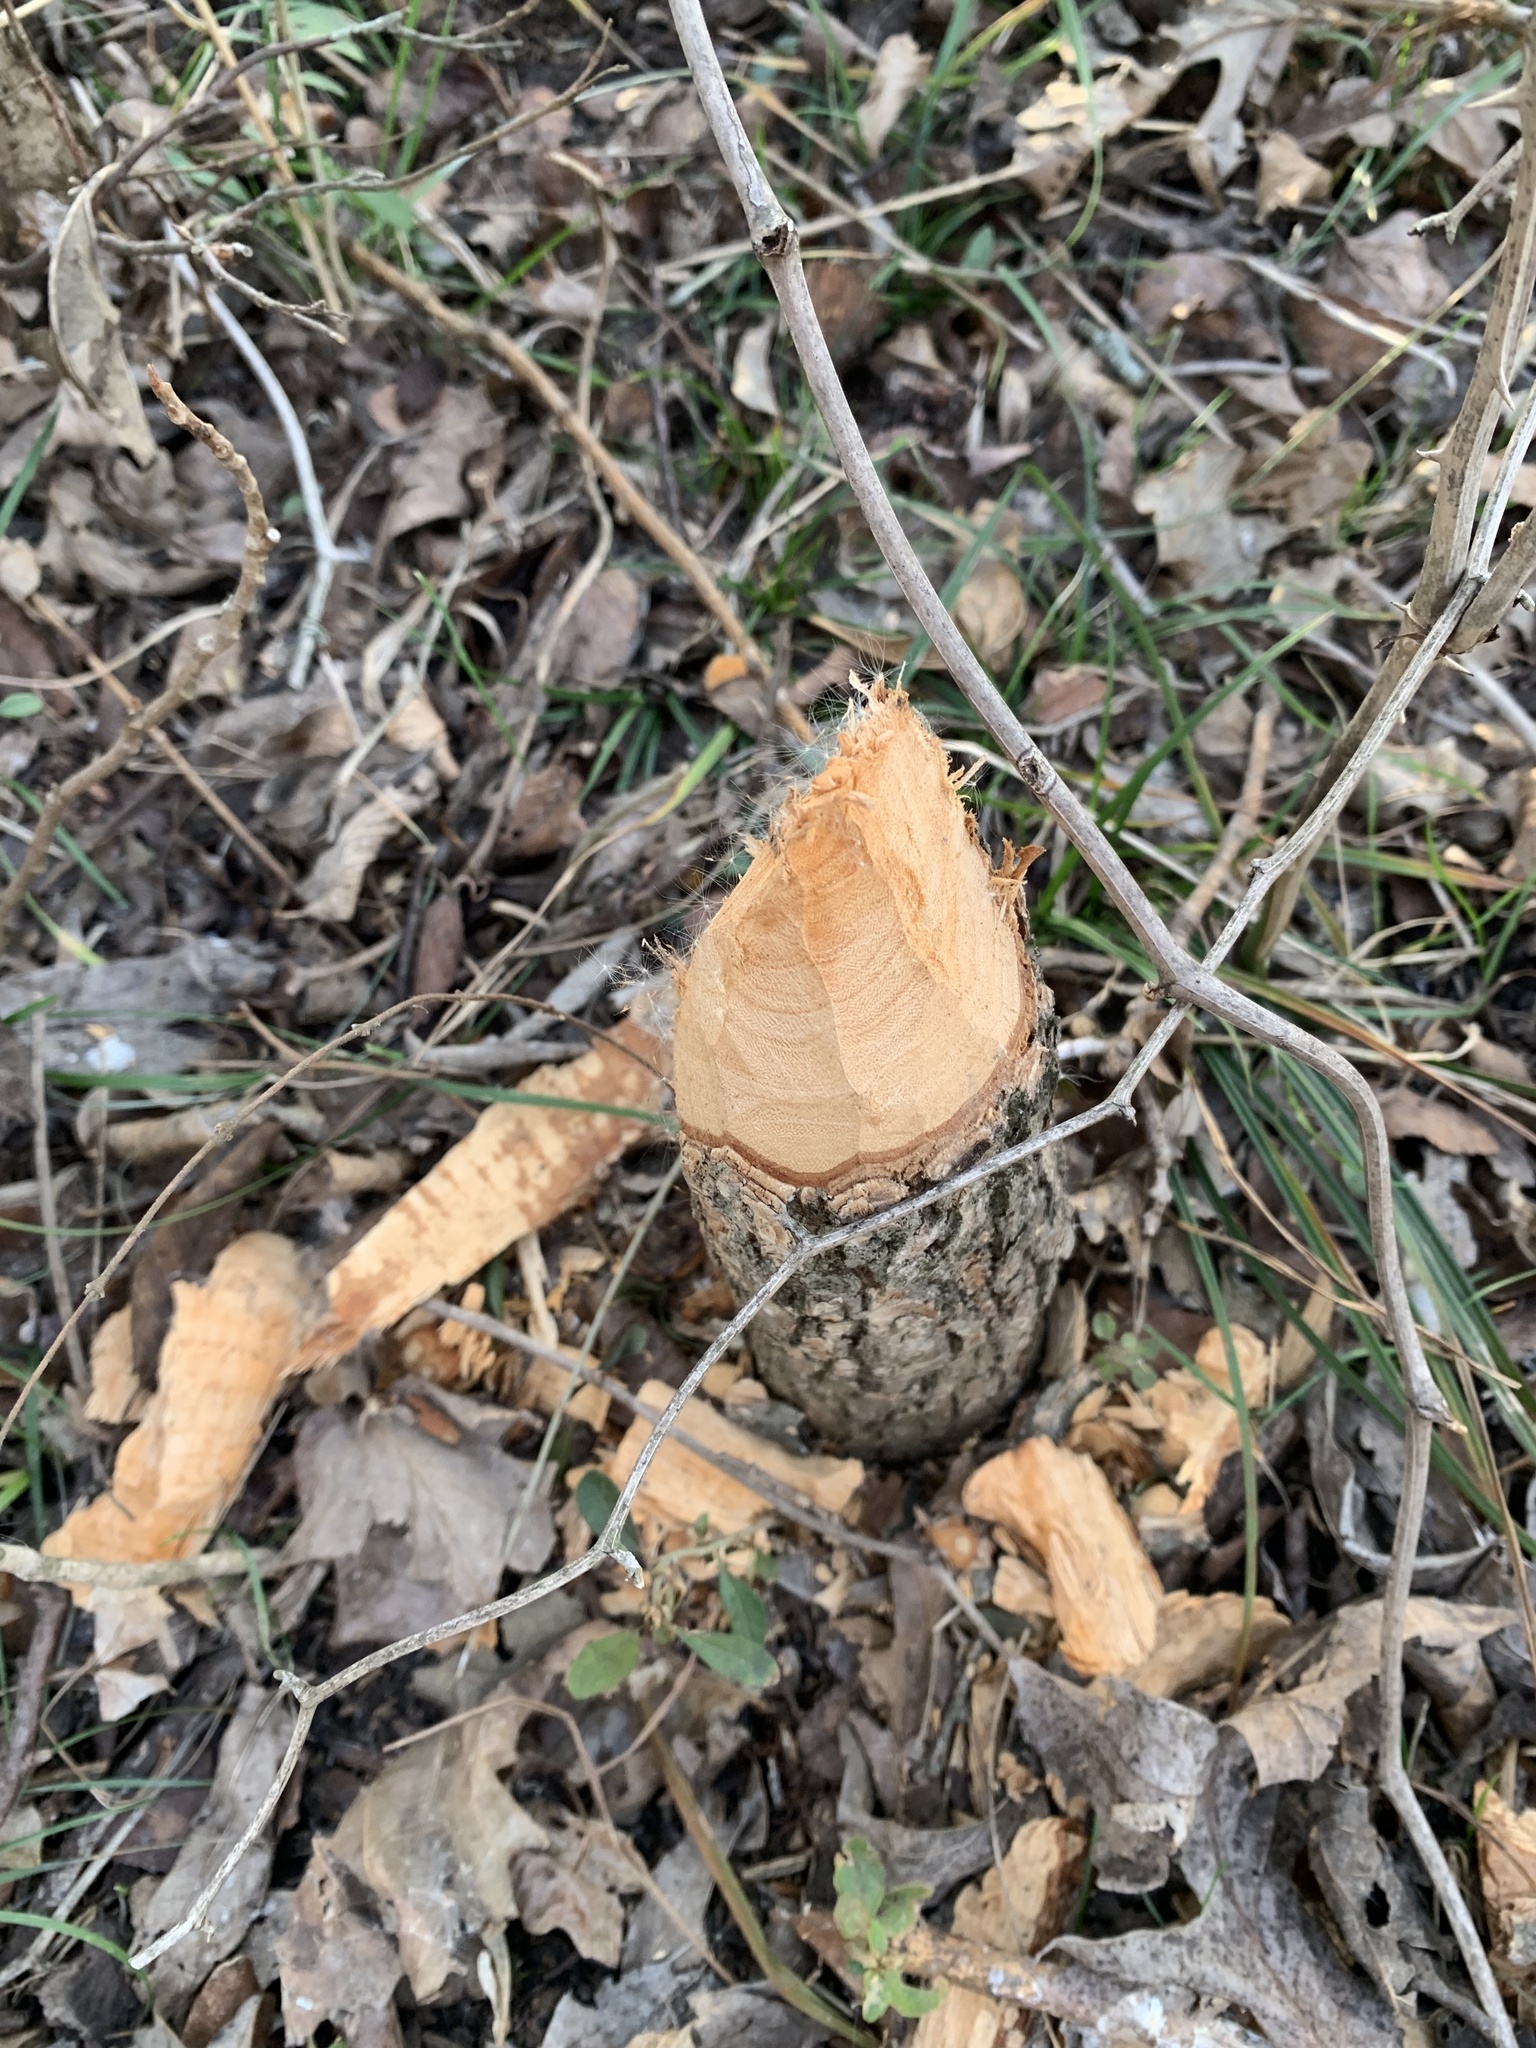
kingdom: Animalia
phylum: Chordata
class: Mammalia
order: Rodentia
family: Castoridae
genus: Castor
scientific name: Castor canadensis
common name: American beaver
